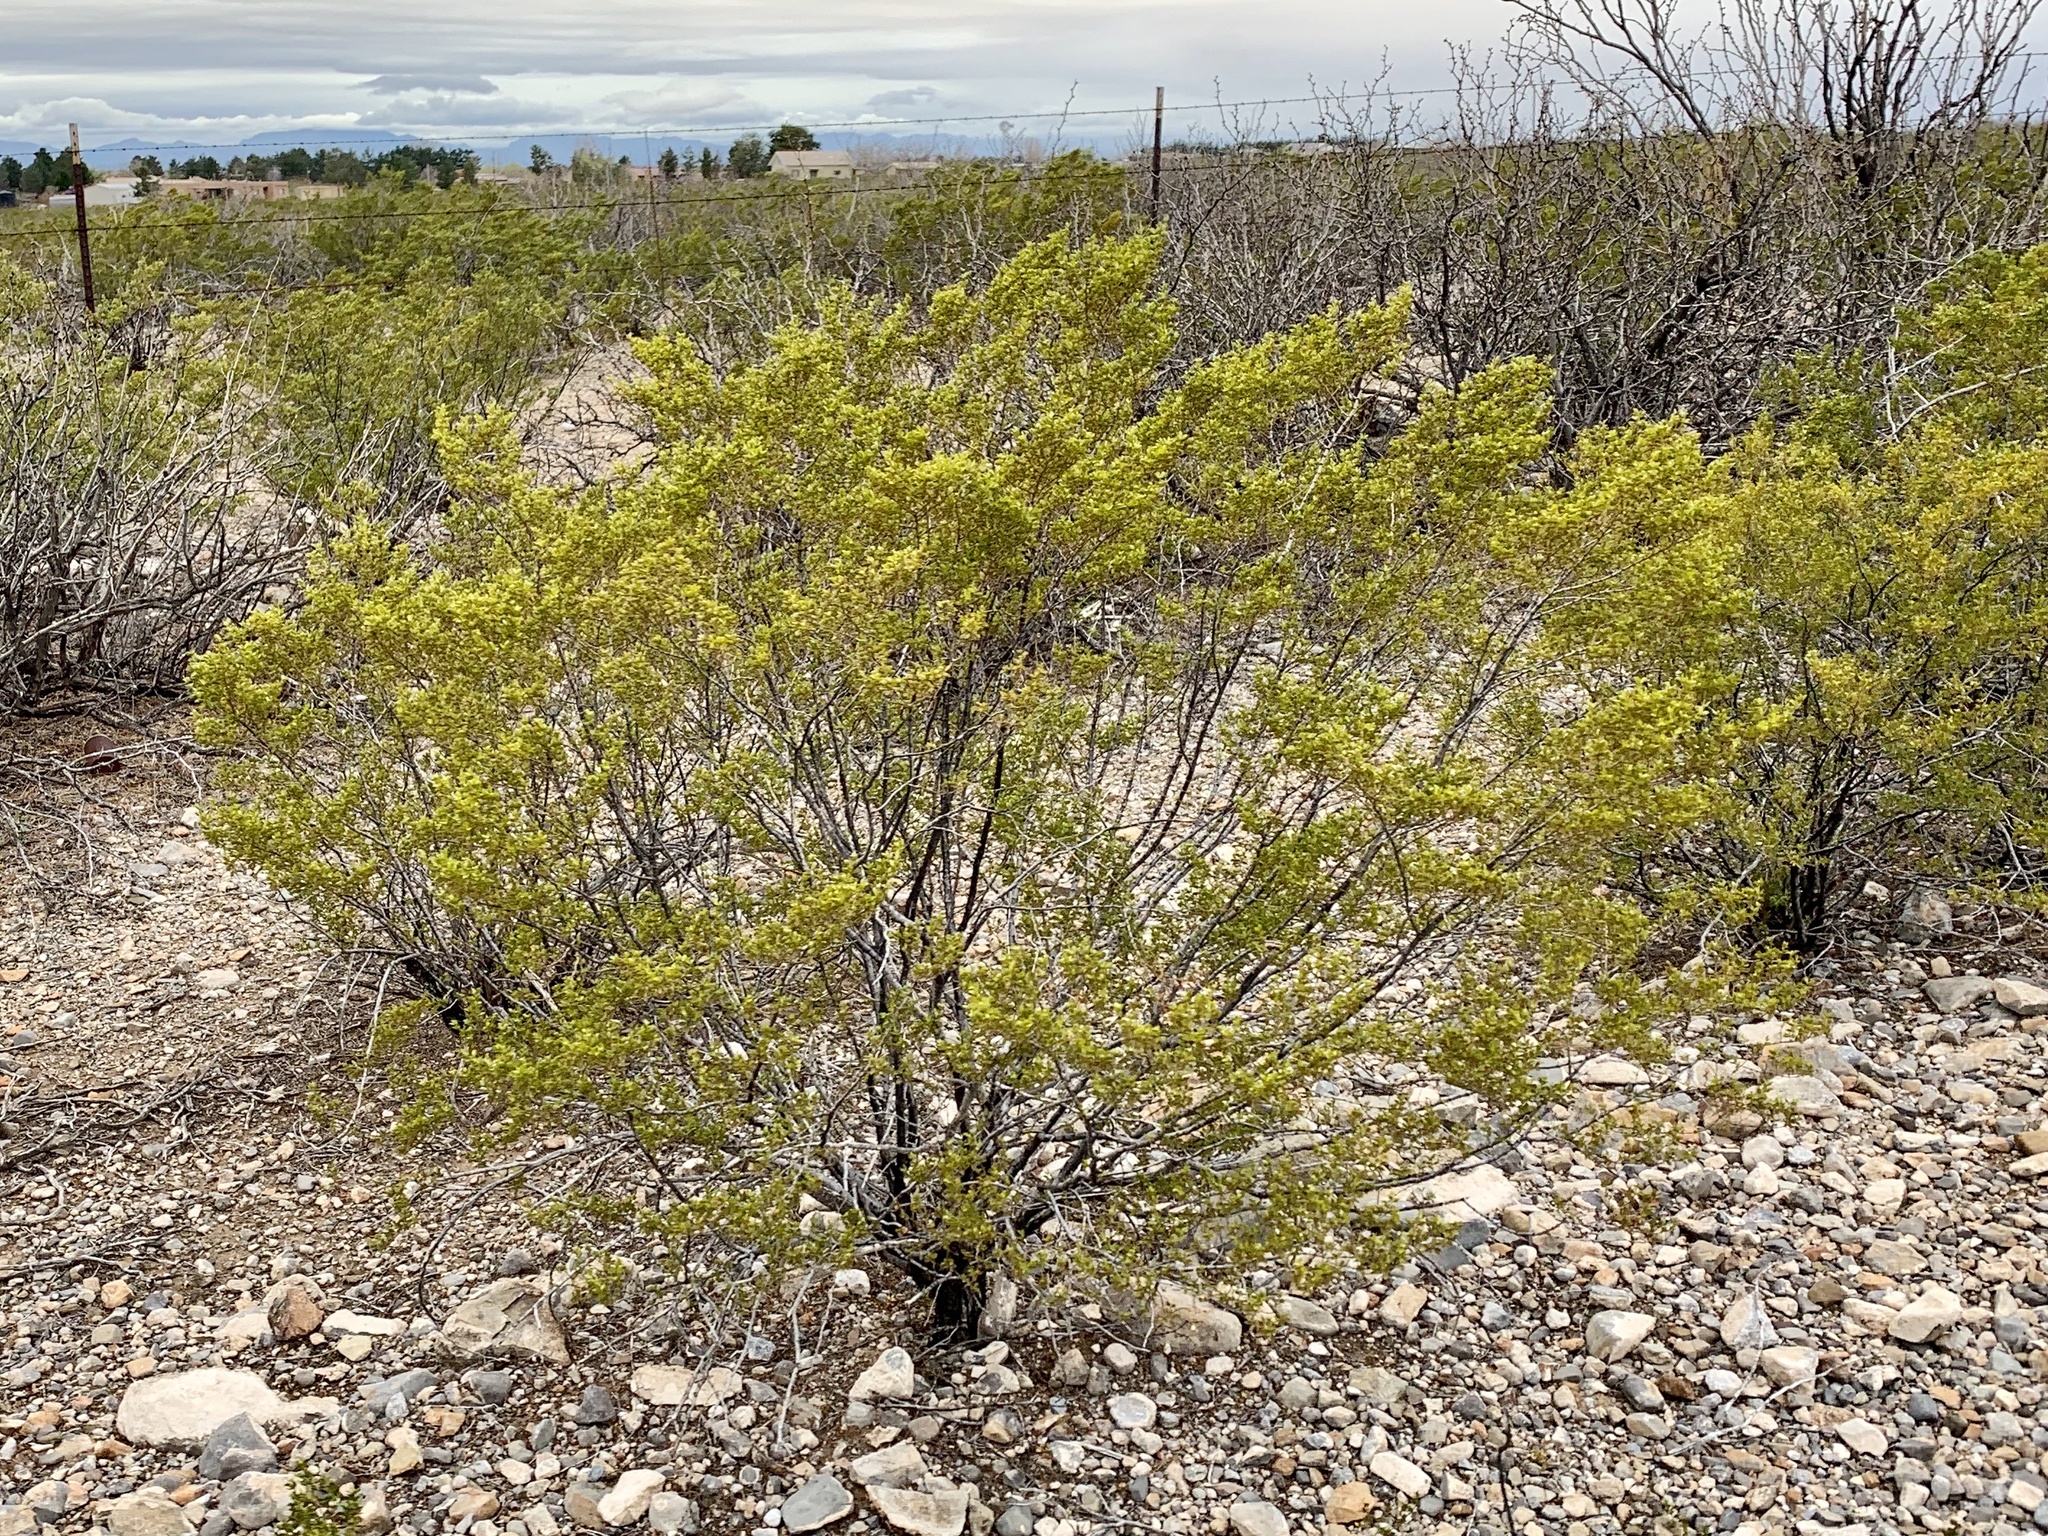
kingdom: Plantae
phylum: Tracheophyta
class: Magnoliopsida
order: Zygophyllales
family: Zygophyllaceae
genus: Larrea
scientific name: Larrea tridentata
